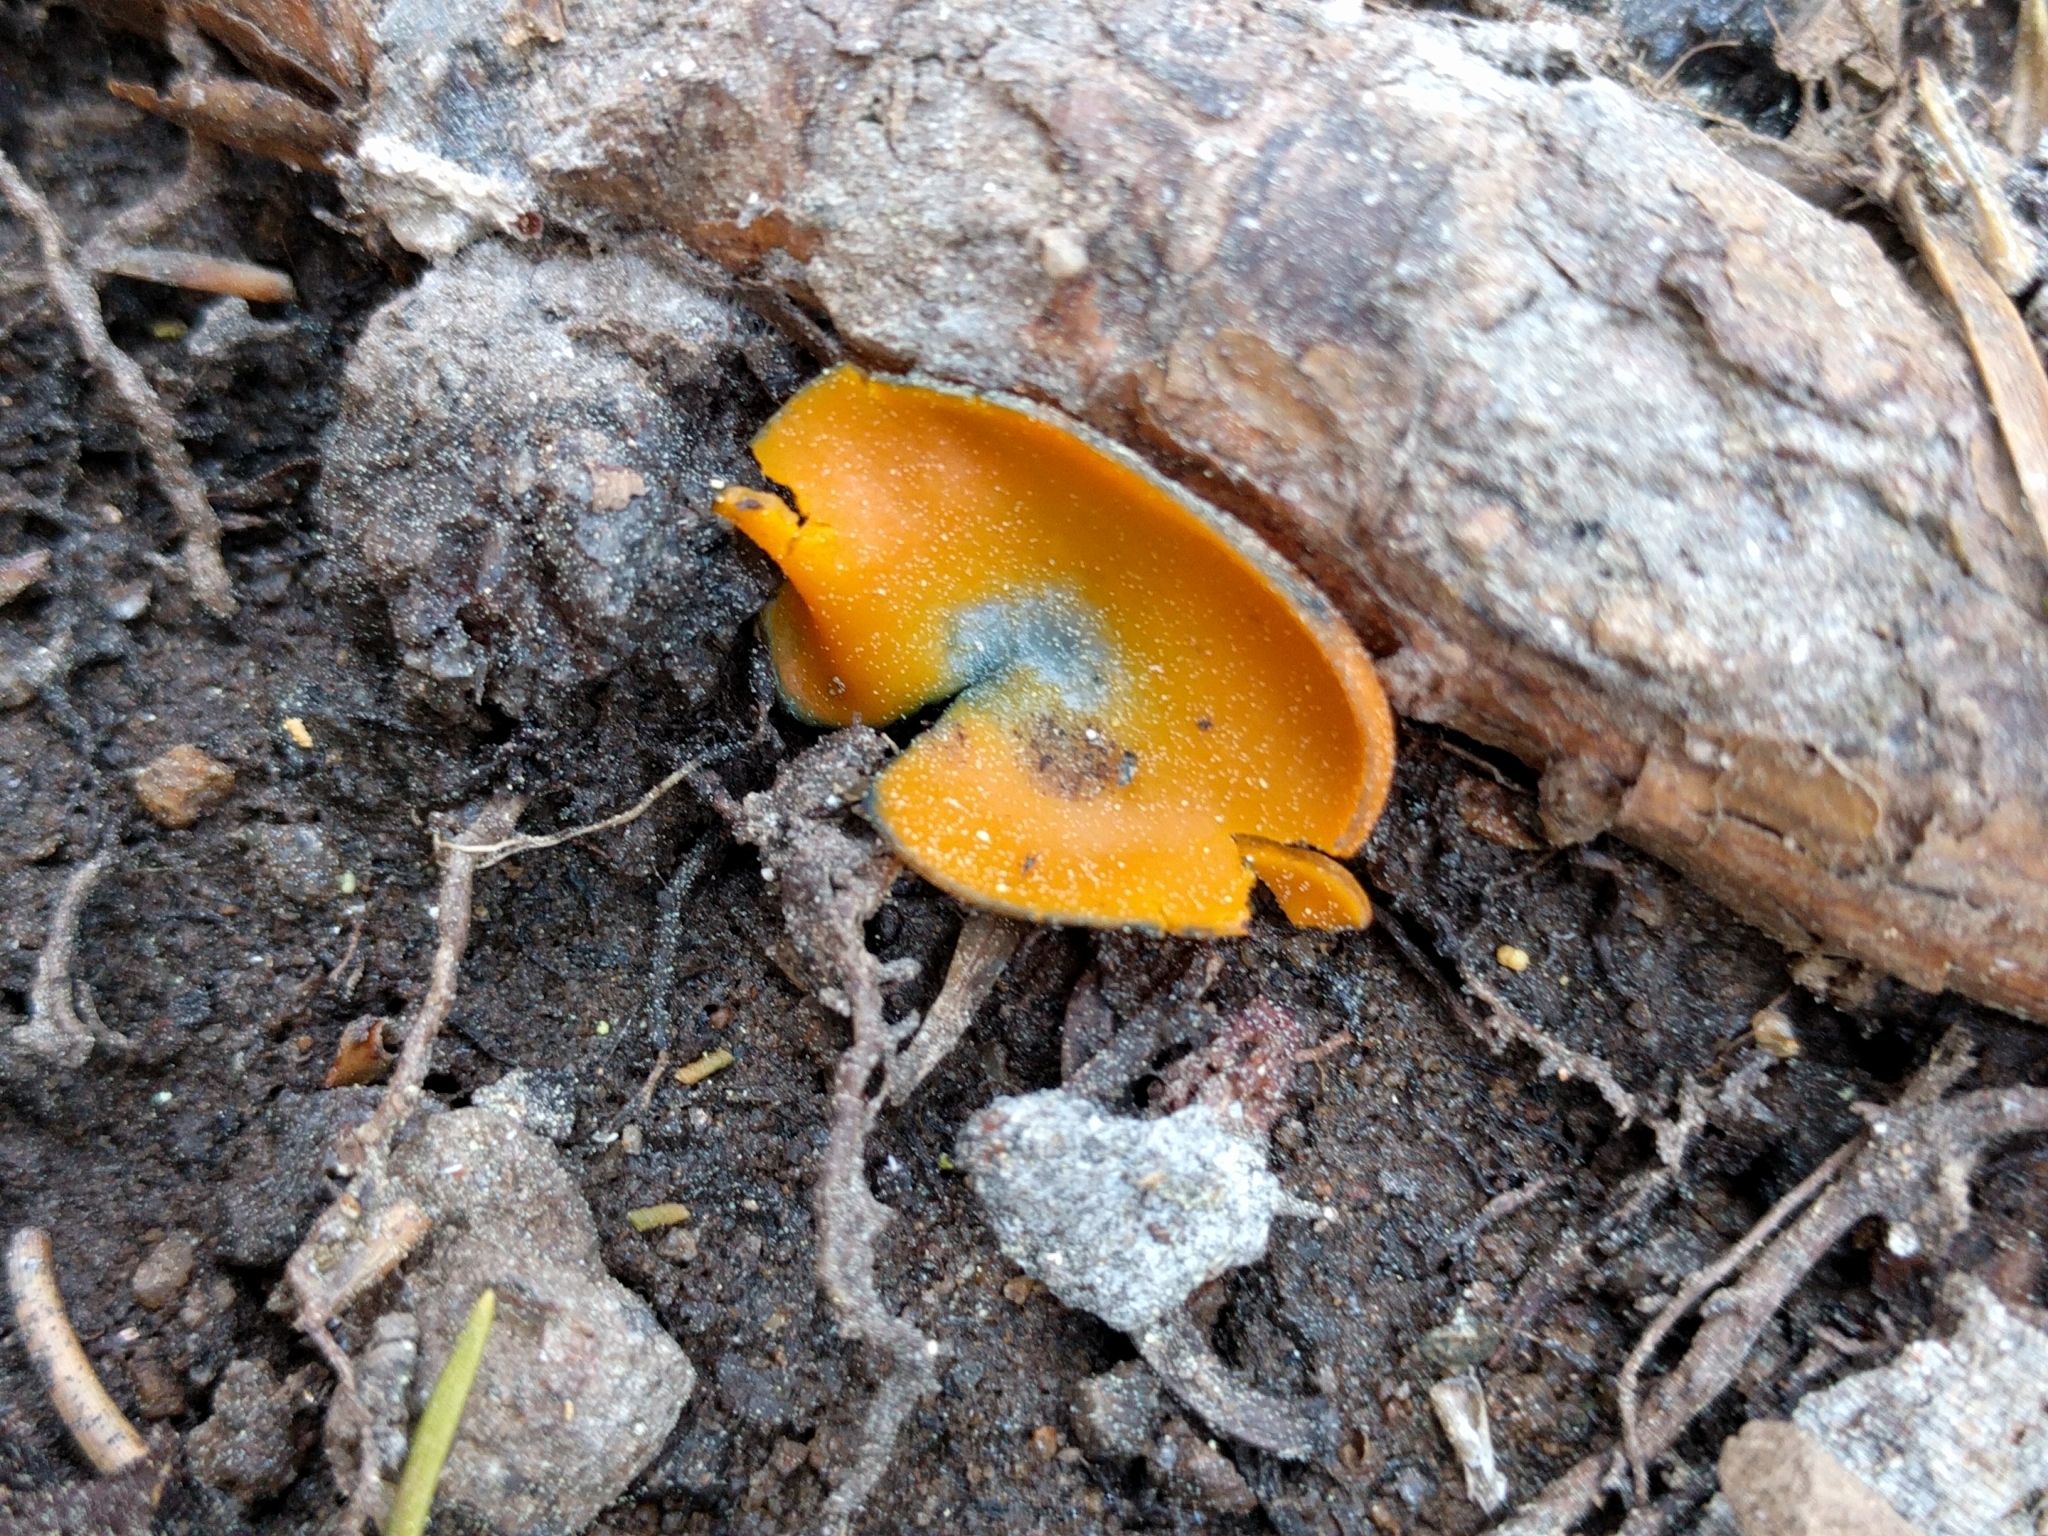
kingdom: Fungi
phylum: Ascomycota
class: Pezizomycetes
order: Pezizales
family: Caloscyphaceae
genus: Caloscypha
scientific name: Caloscypha fulgens
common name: Golden cup
